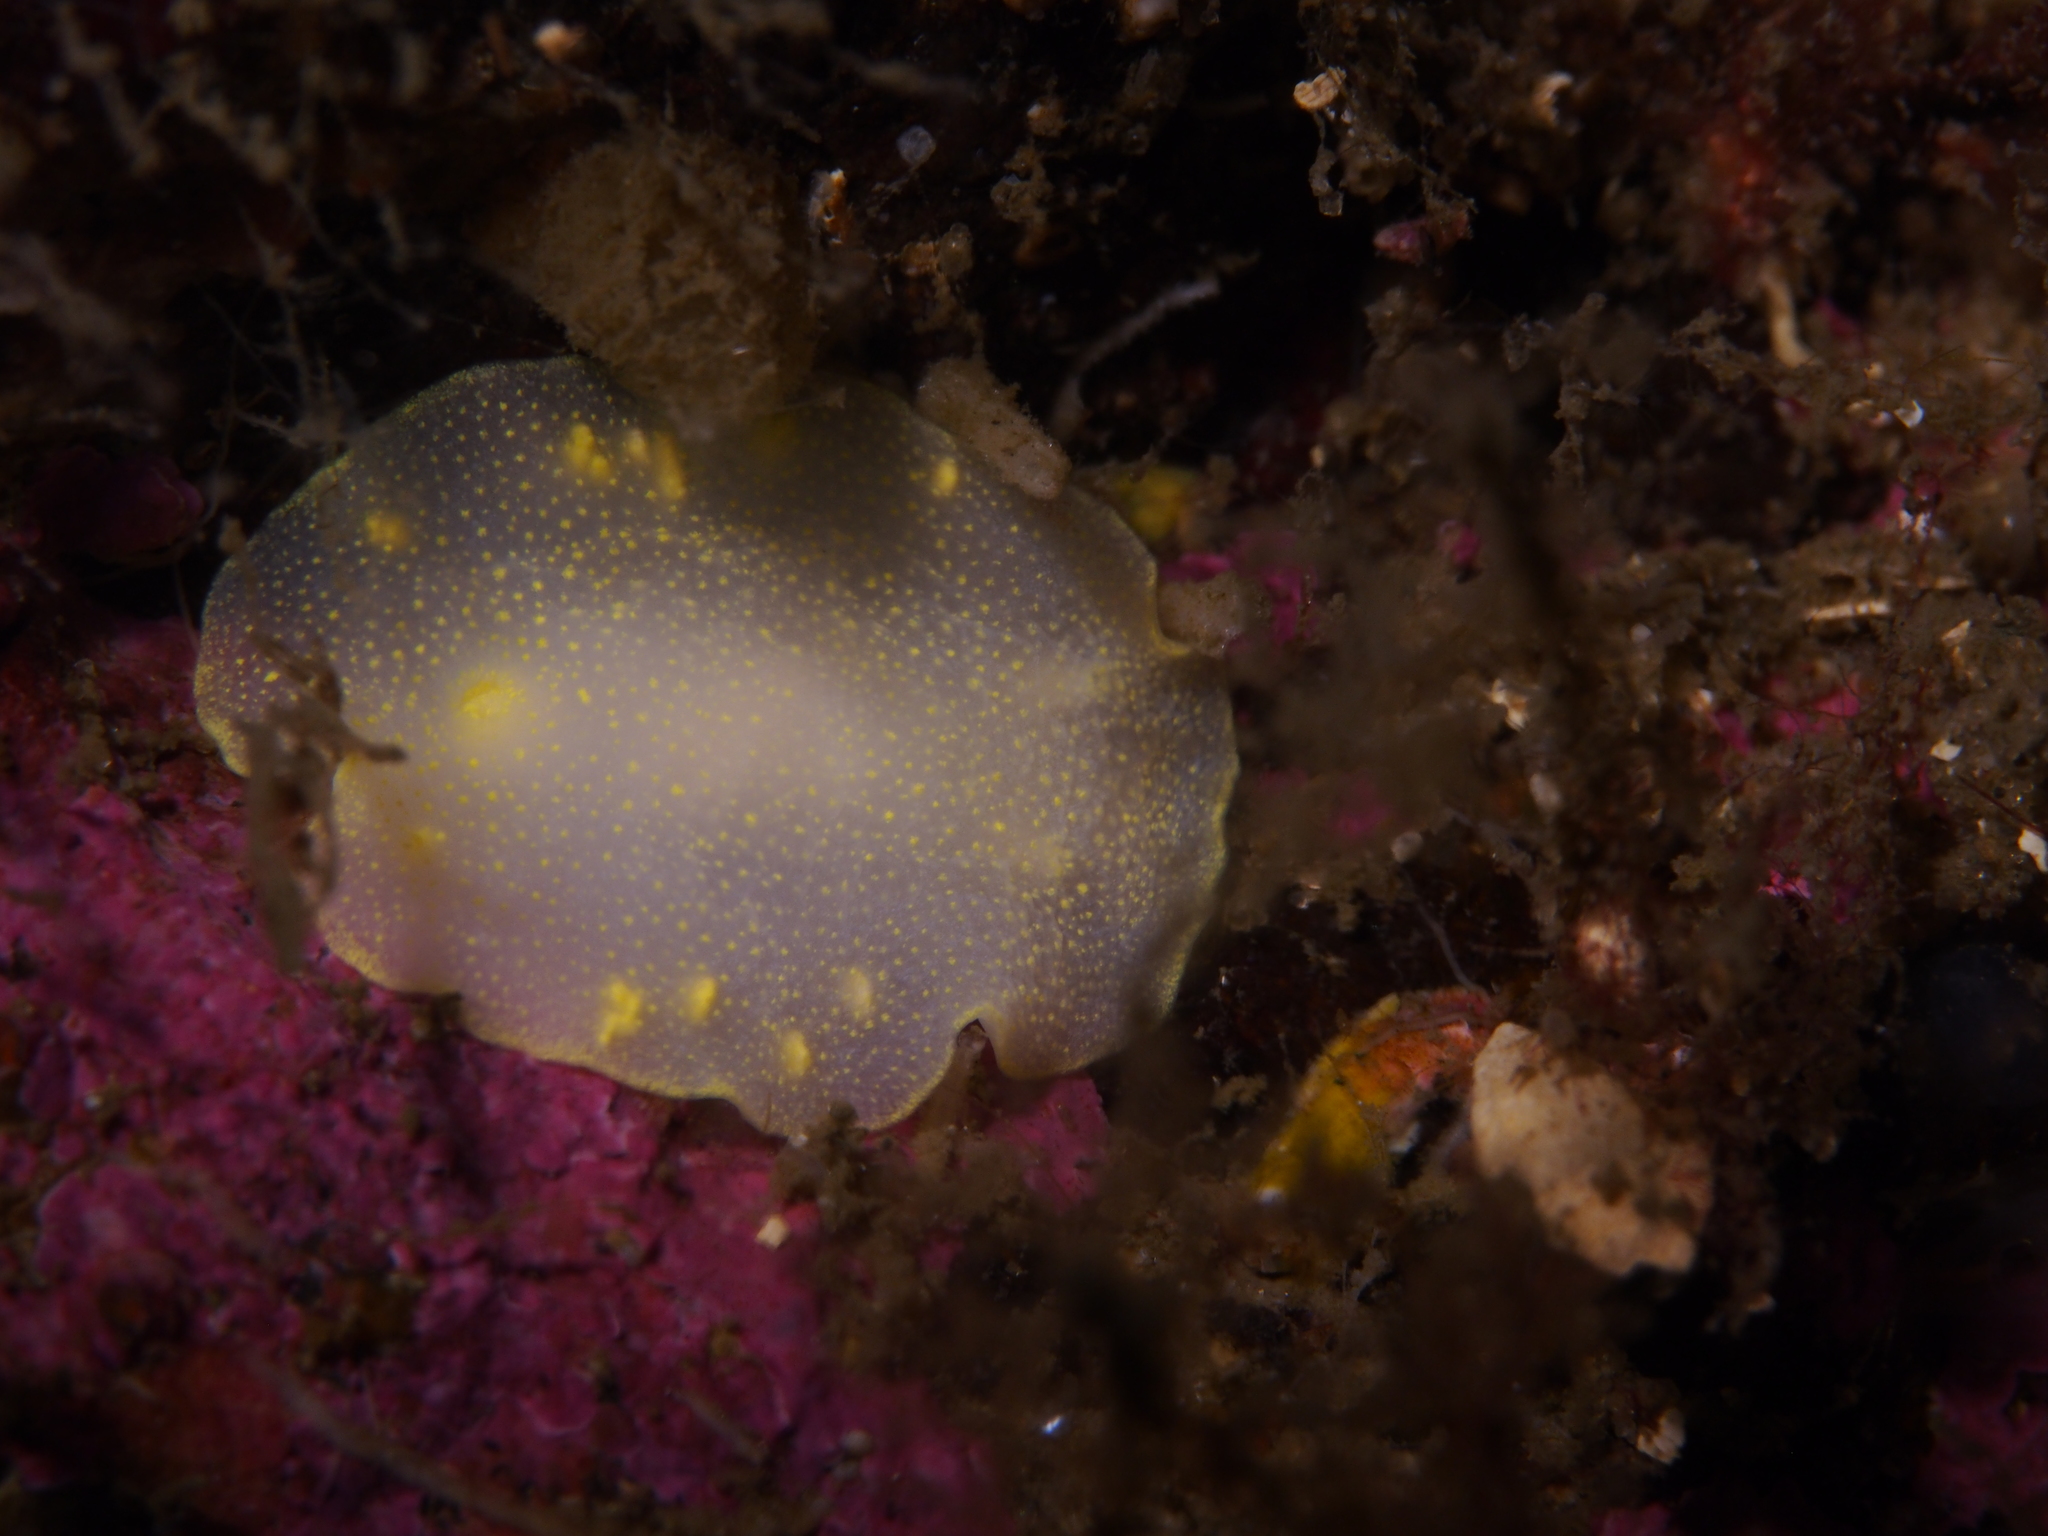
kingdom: Animalia
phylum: Mollusca
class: Gastropoda
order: Nudibranchia
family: Cadlinidae
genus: Cadlina
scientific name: Cadlina laevis
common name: White atlantic cadlina
